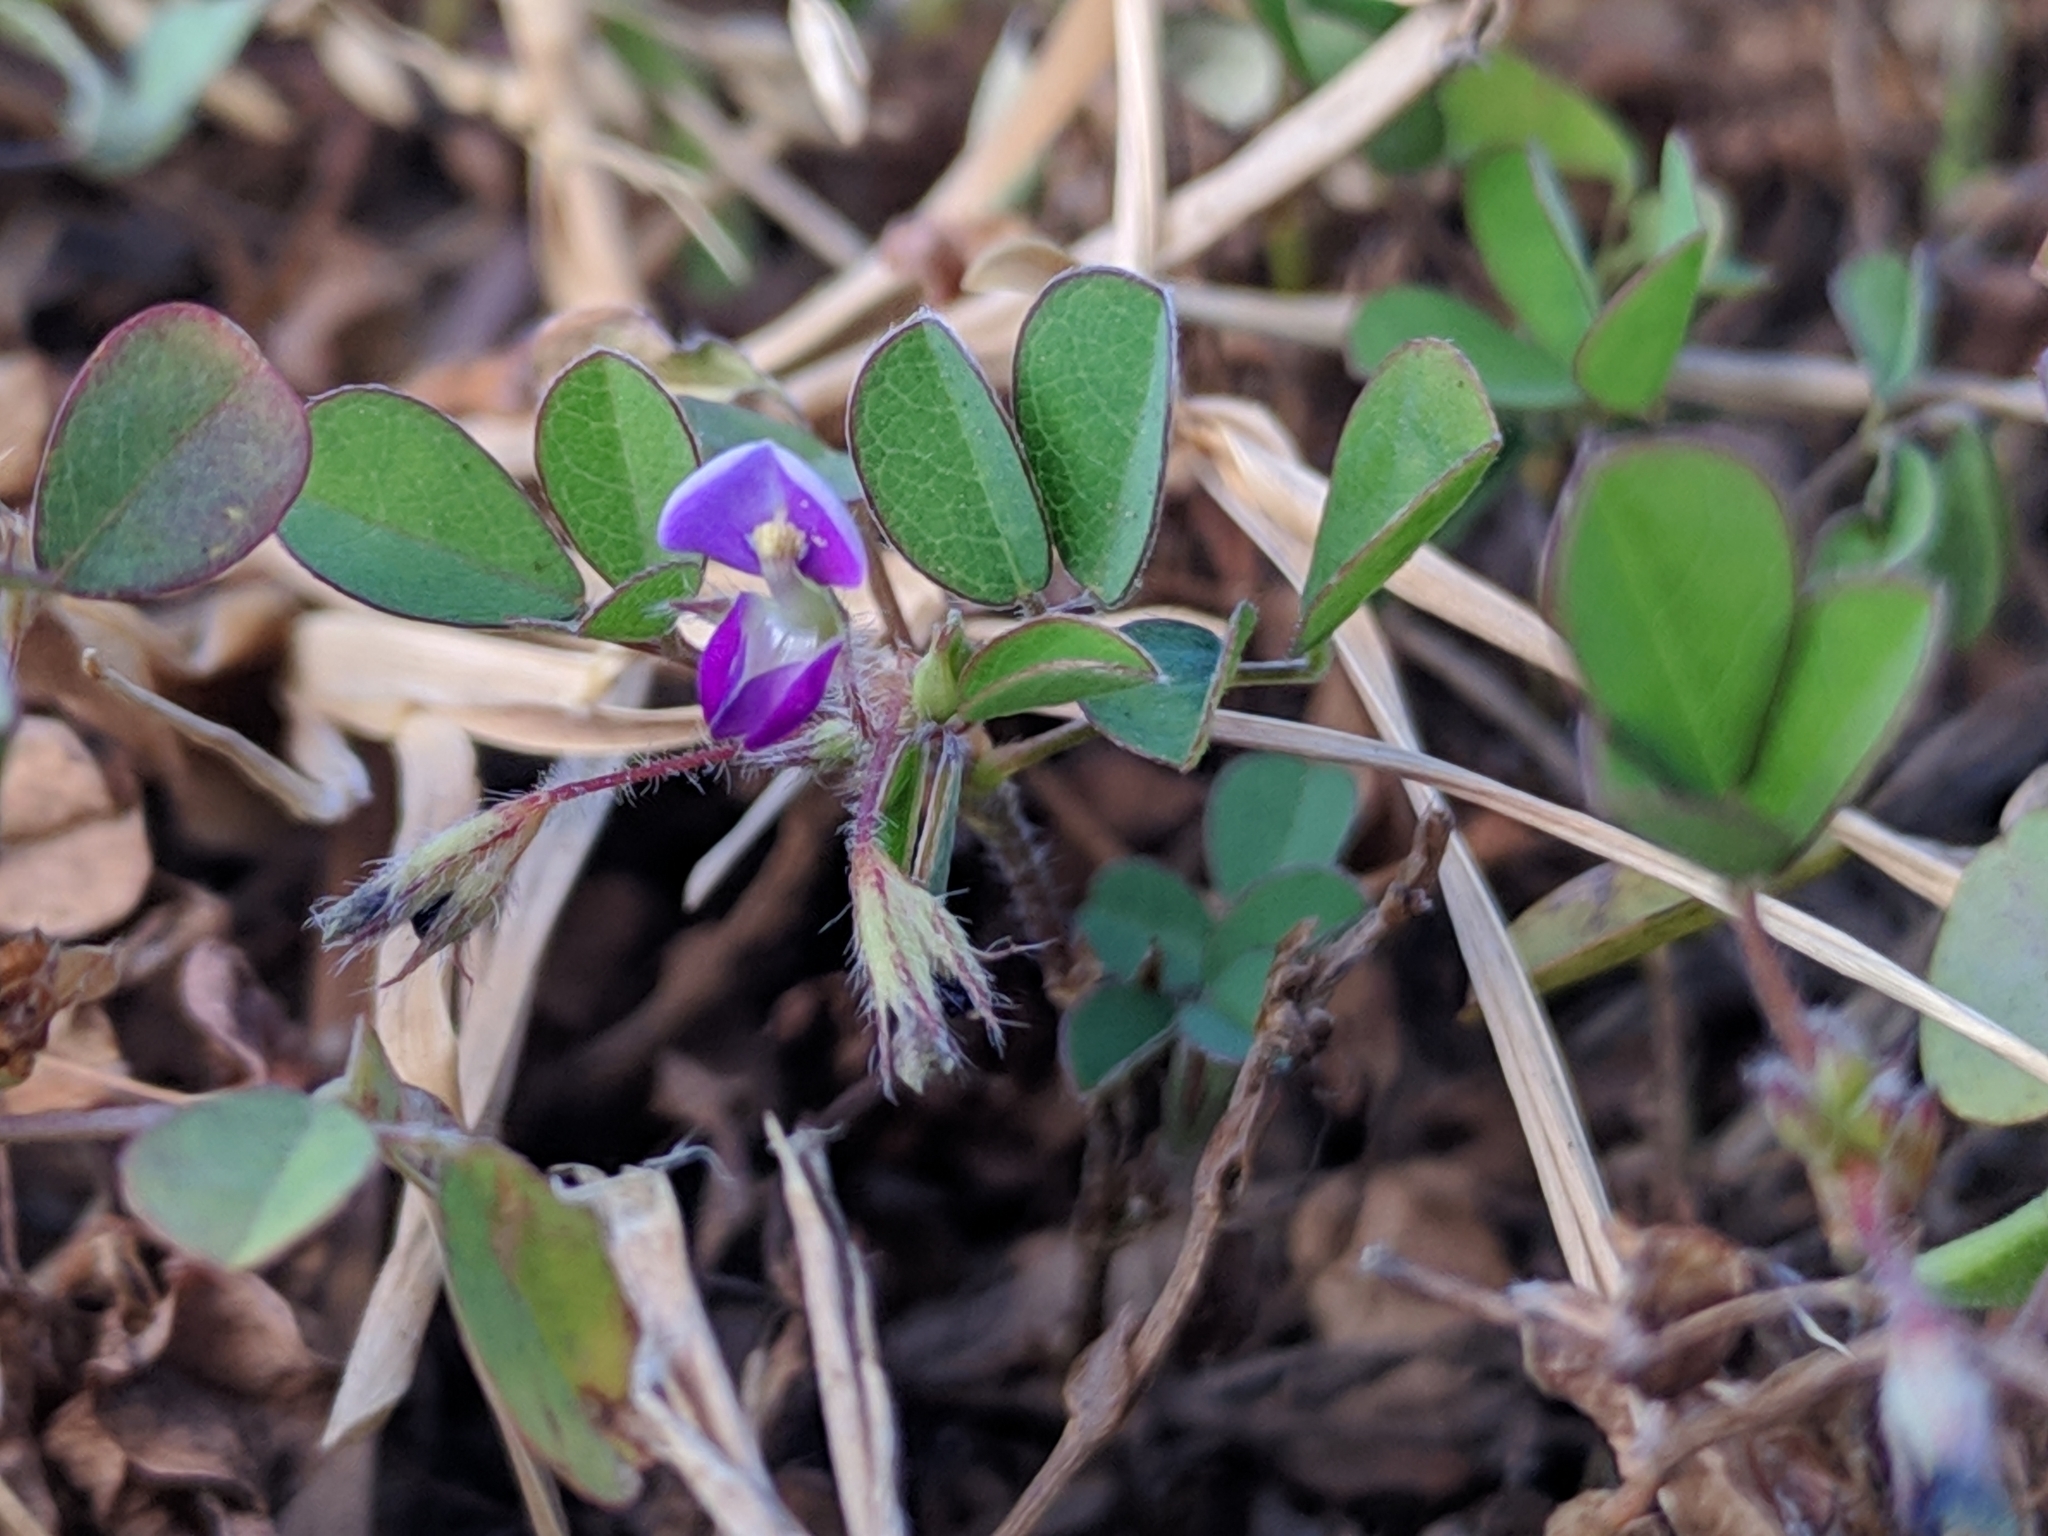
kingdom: Plantae
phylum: Tracheophyta
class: Magnoliopsida
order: Fabales
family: Fabaceae
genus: Grona
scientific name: Grona triflora
